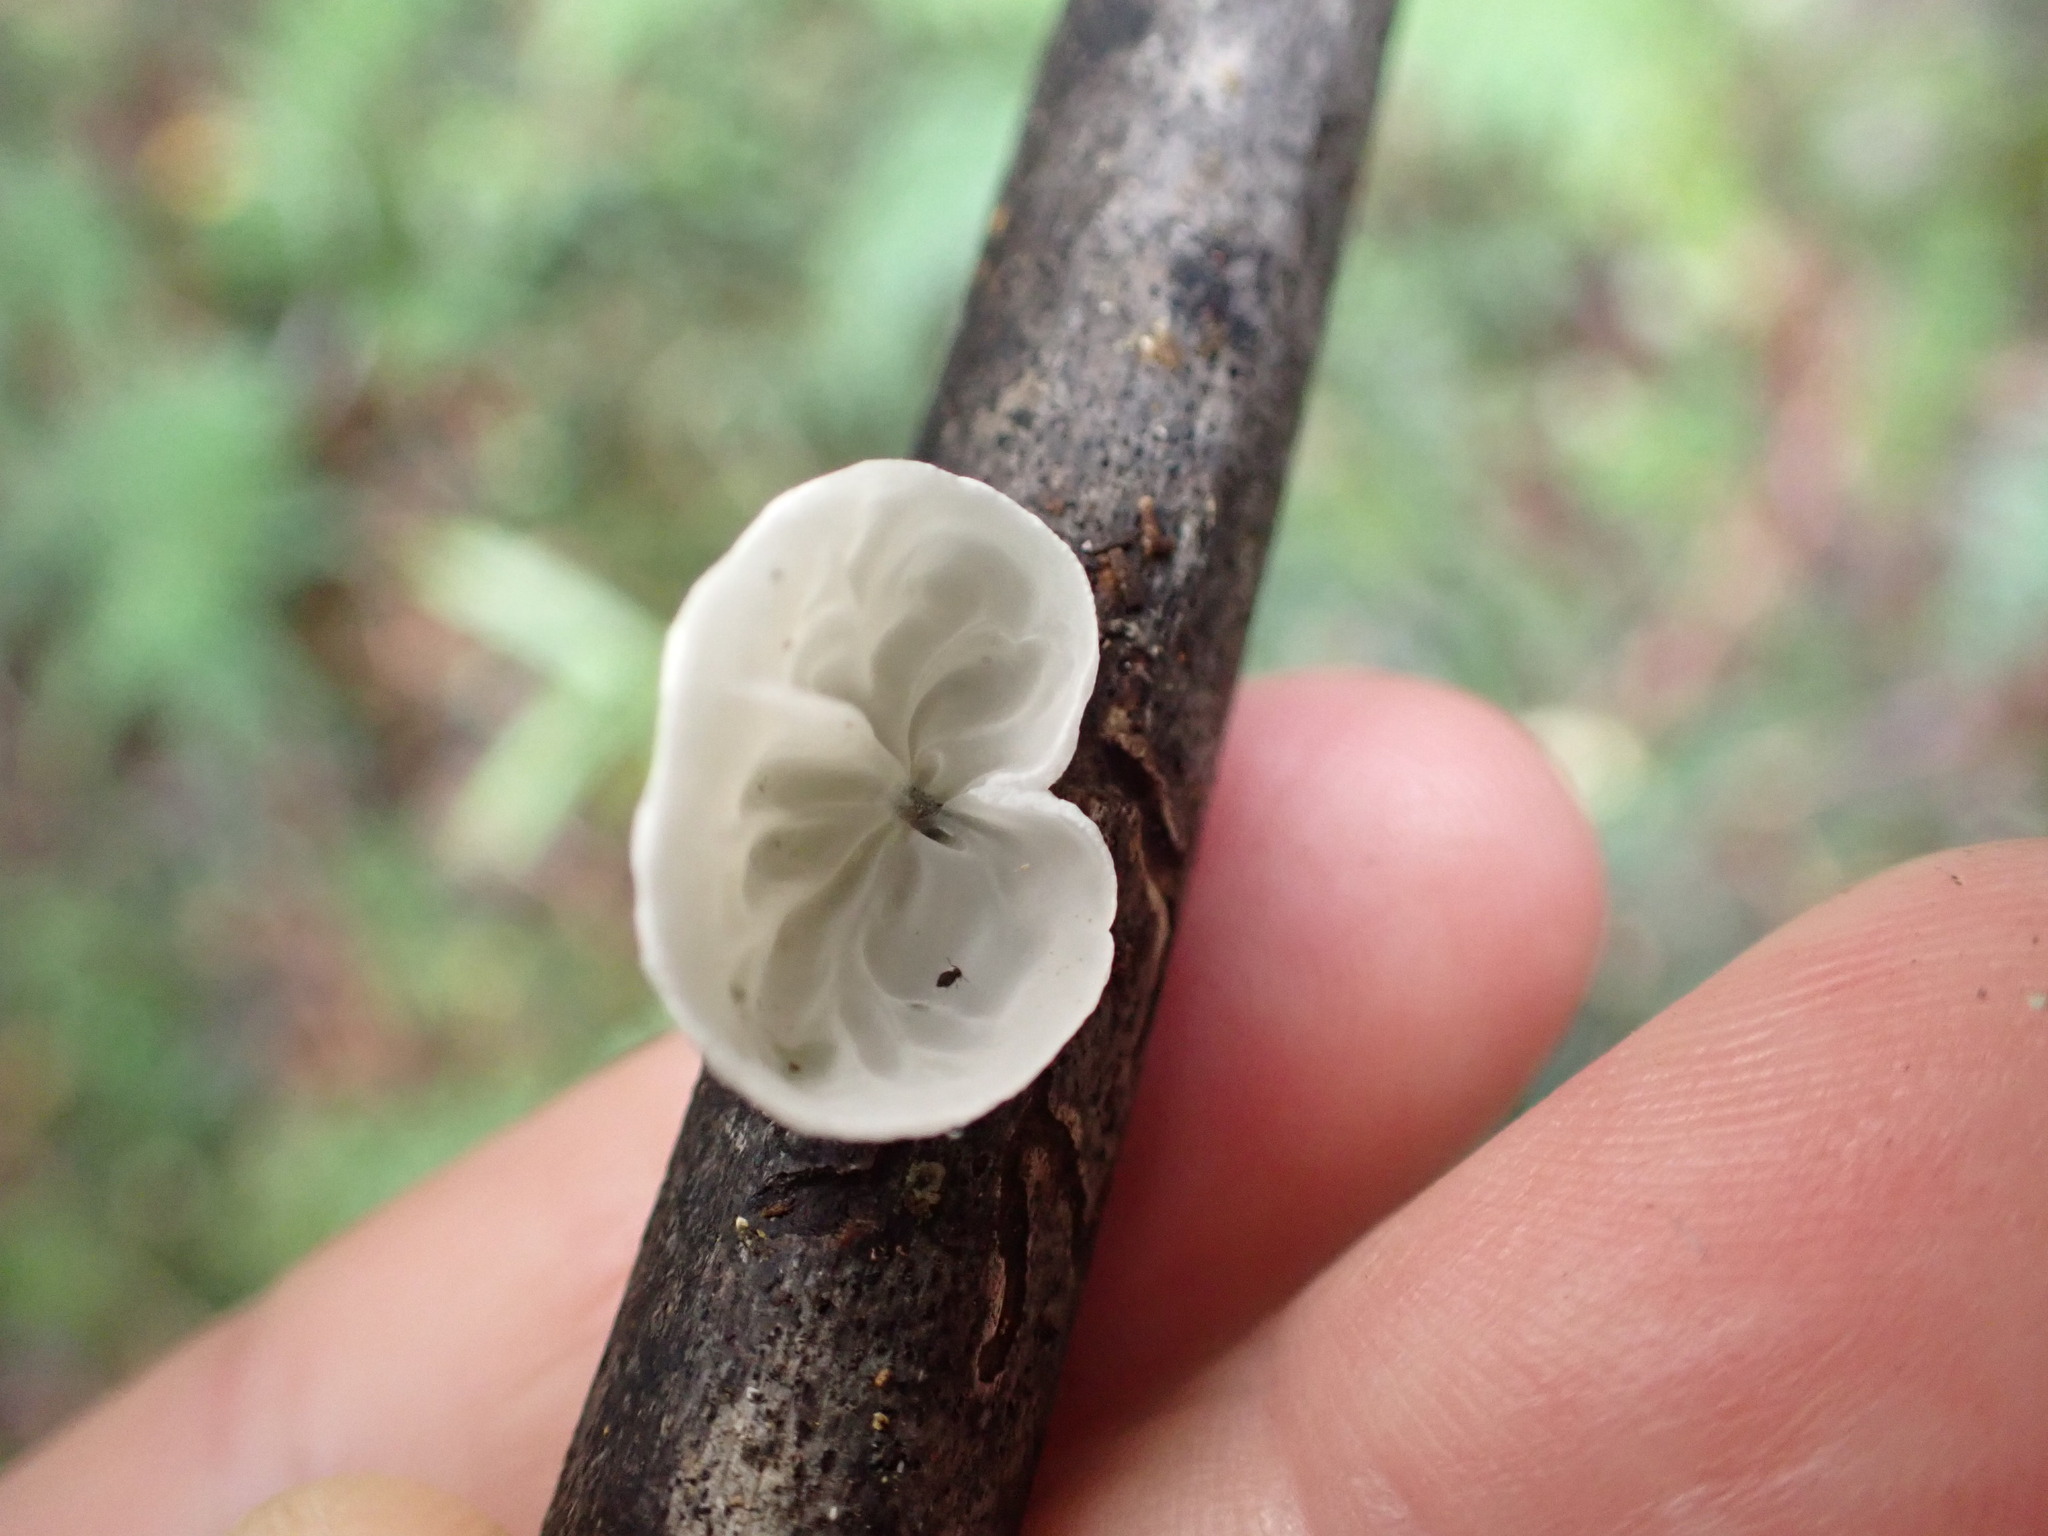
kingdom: Fungi
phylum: Basidiomycota
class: Agaricomycetes
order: Agaricales
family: Marasmiaceae
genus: Campanella
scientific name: Campanella tristis
